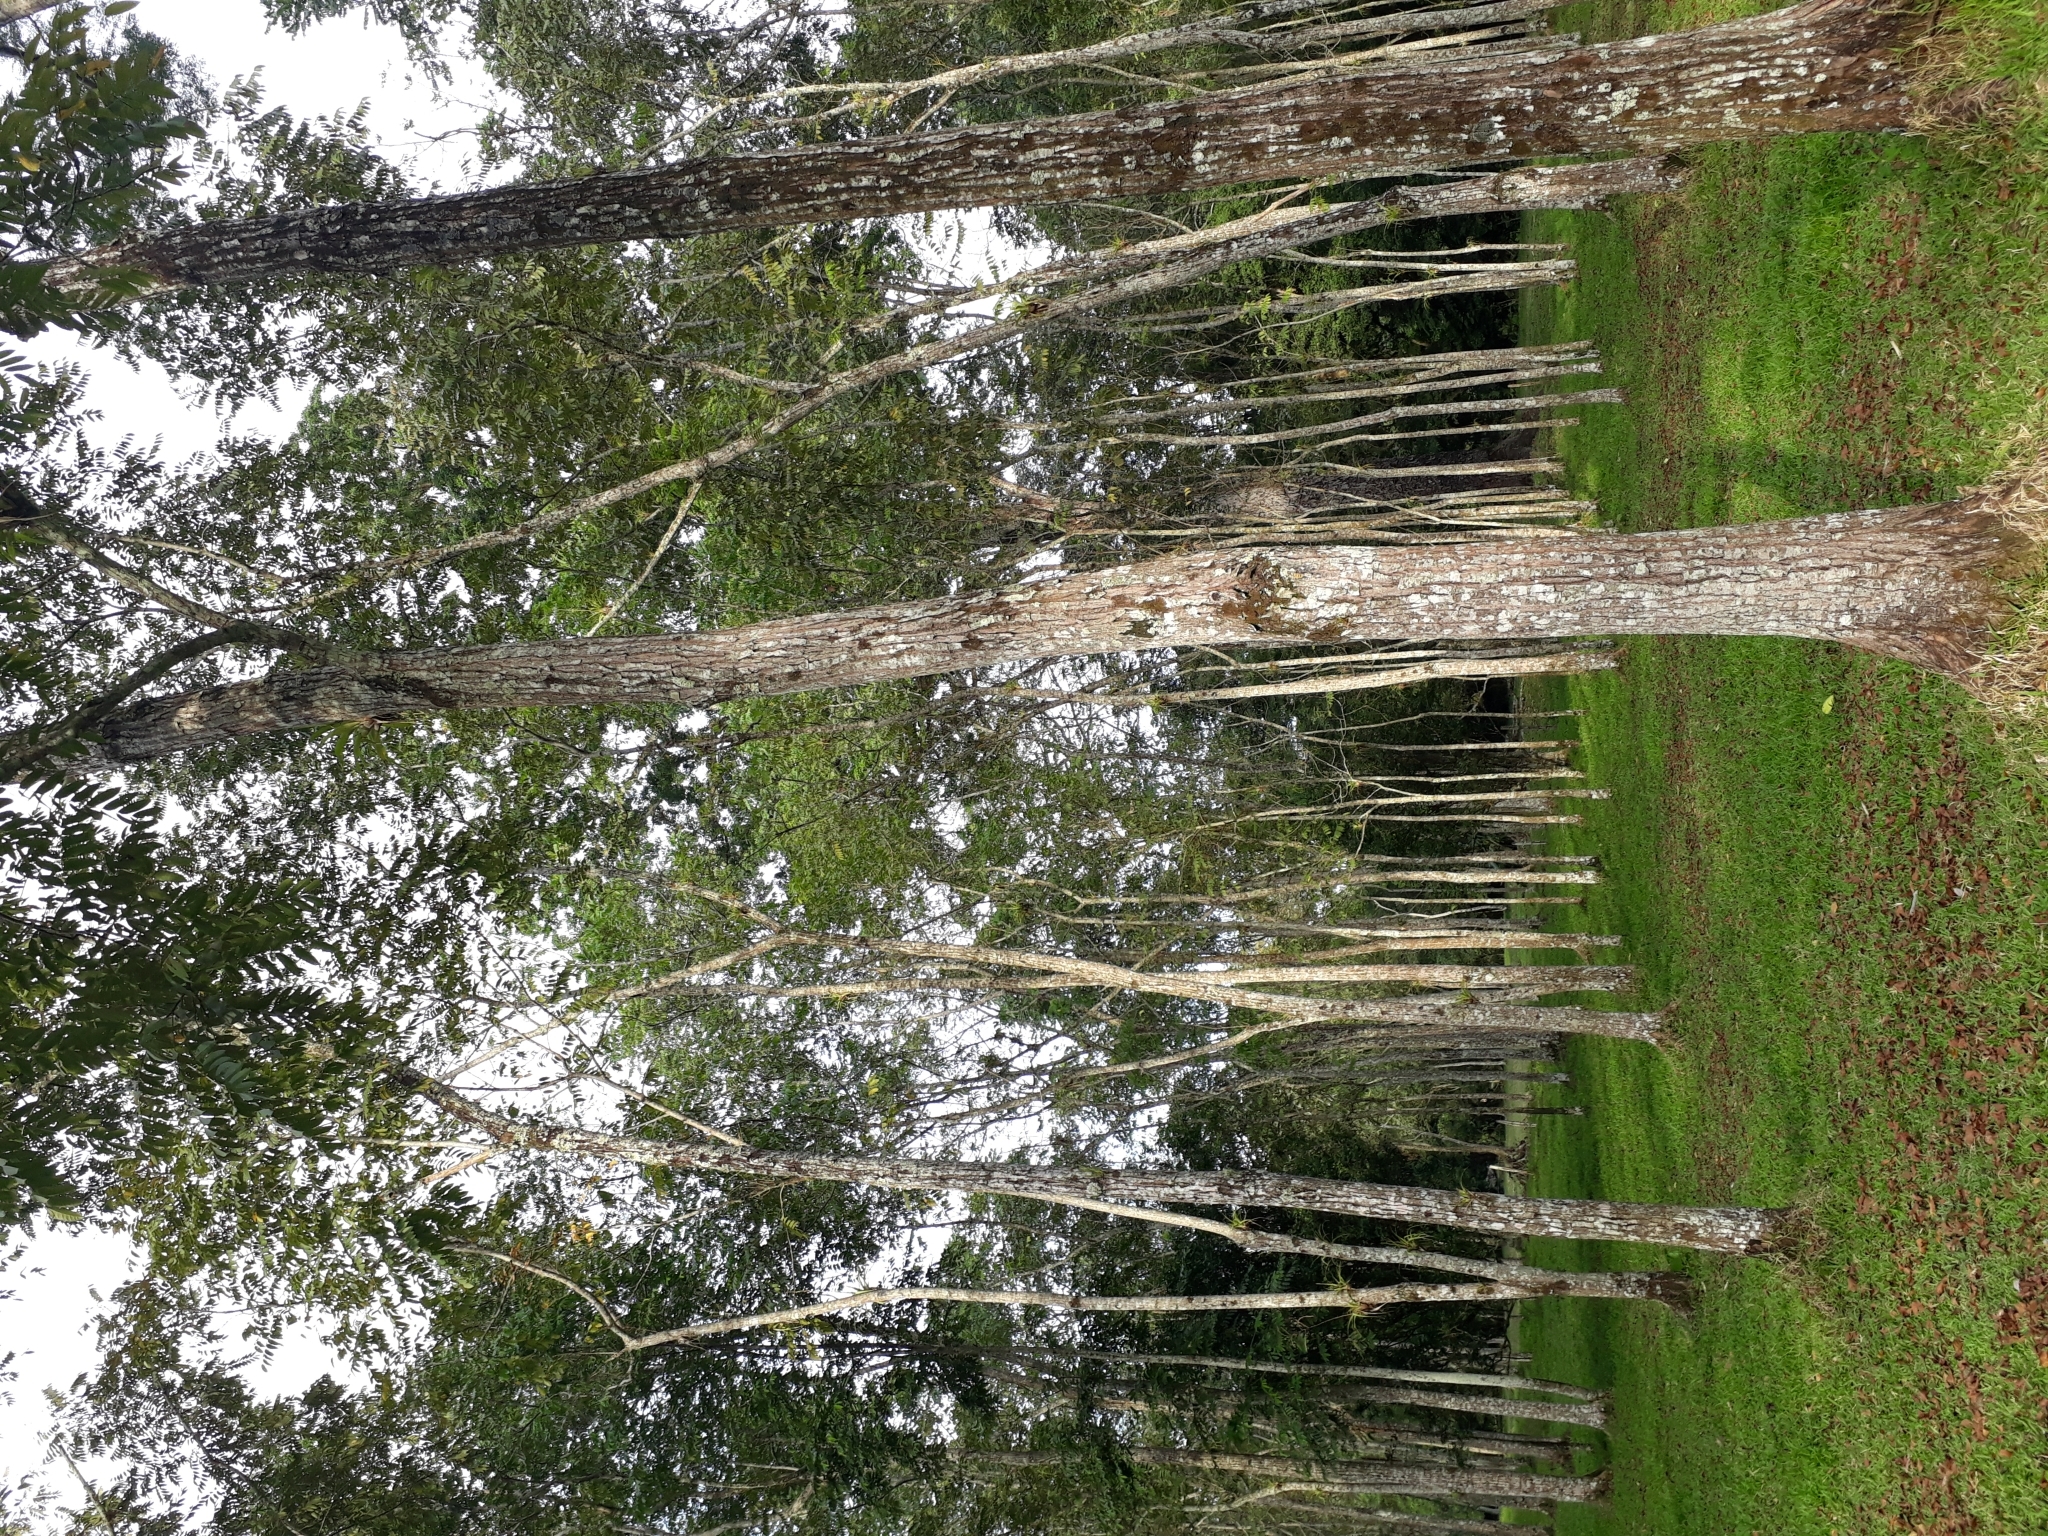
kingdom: Plantae
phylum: Tracheophyta
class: Magnoliopsida
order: Sapindales
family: Meliaceae
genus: Cedrela
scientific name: Cedrela odorata
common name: Red cedar
